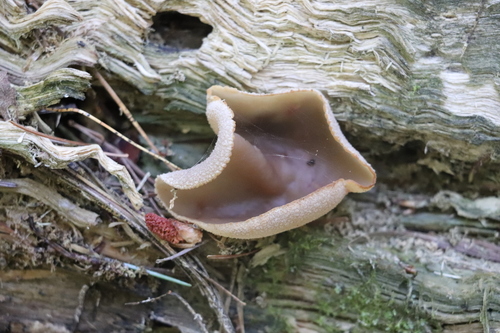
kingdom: Fungi
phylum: Ascomycota
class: Pezizomycetes
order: Pezizales
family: Pezizaceae
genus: Peziza
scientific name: Peziza varia
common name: Layered cup
